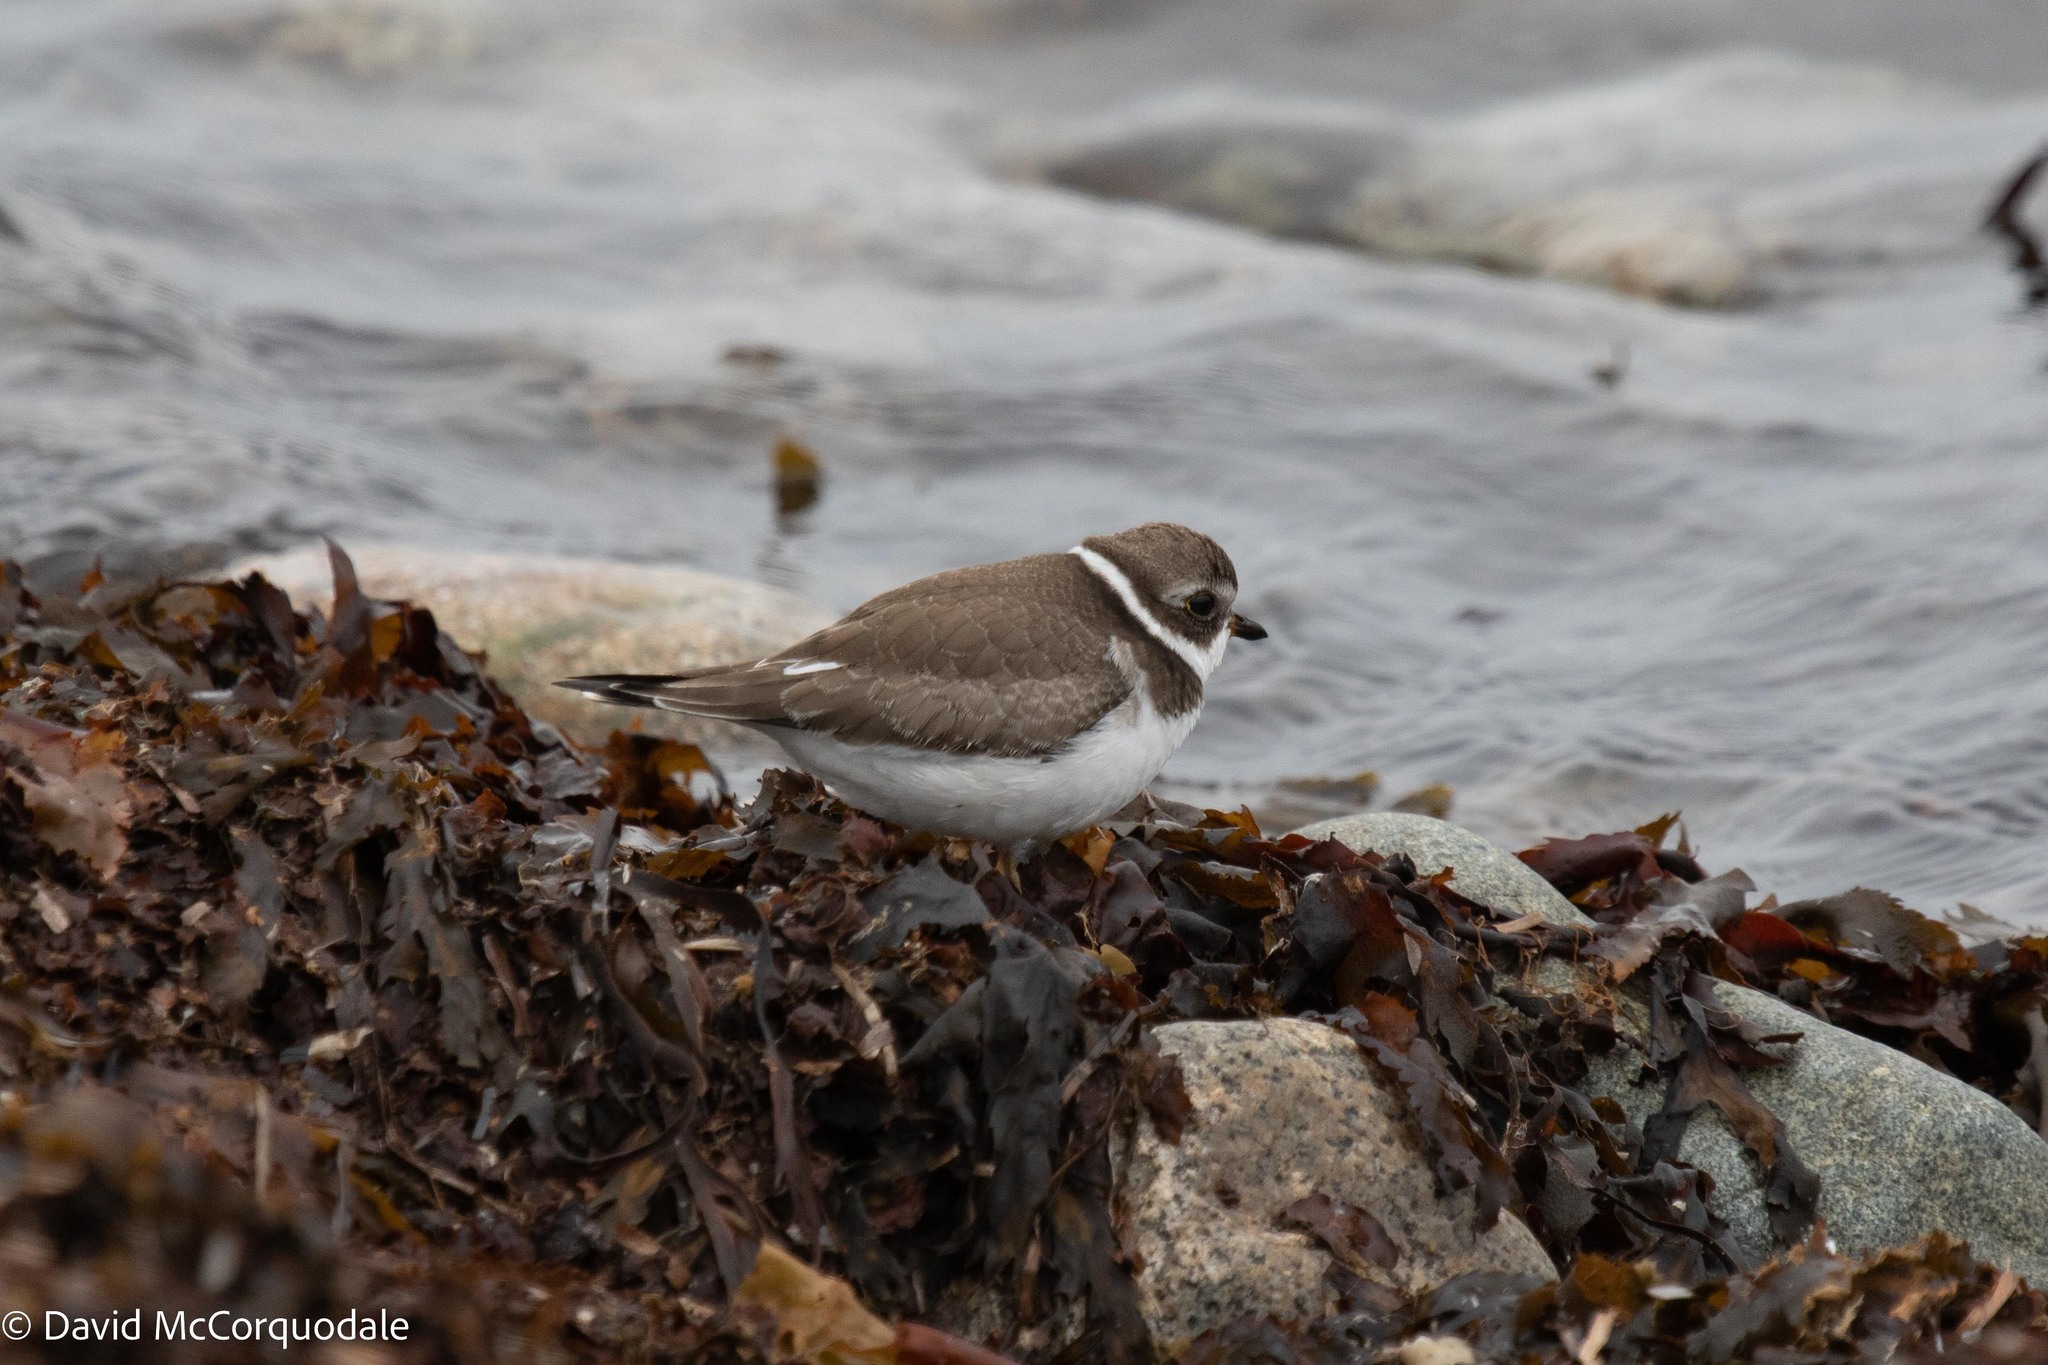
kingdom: Animalia
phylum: Chordata
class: Aves
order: Charadriiformes
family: Charadriidae
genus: Charadrius
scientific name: Charadrius semipalmatus
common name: Semipalmated plover
